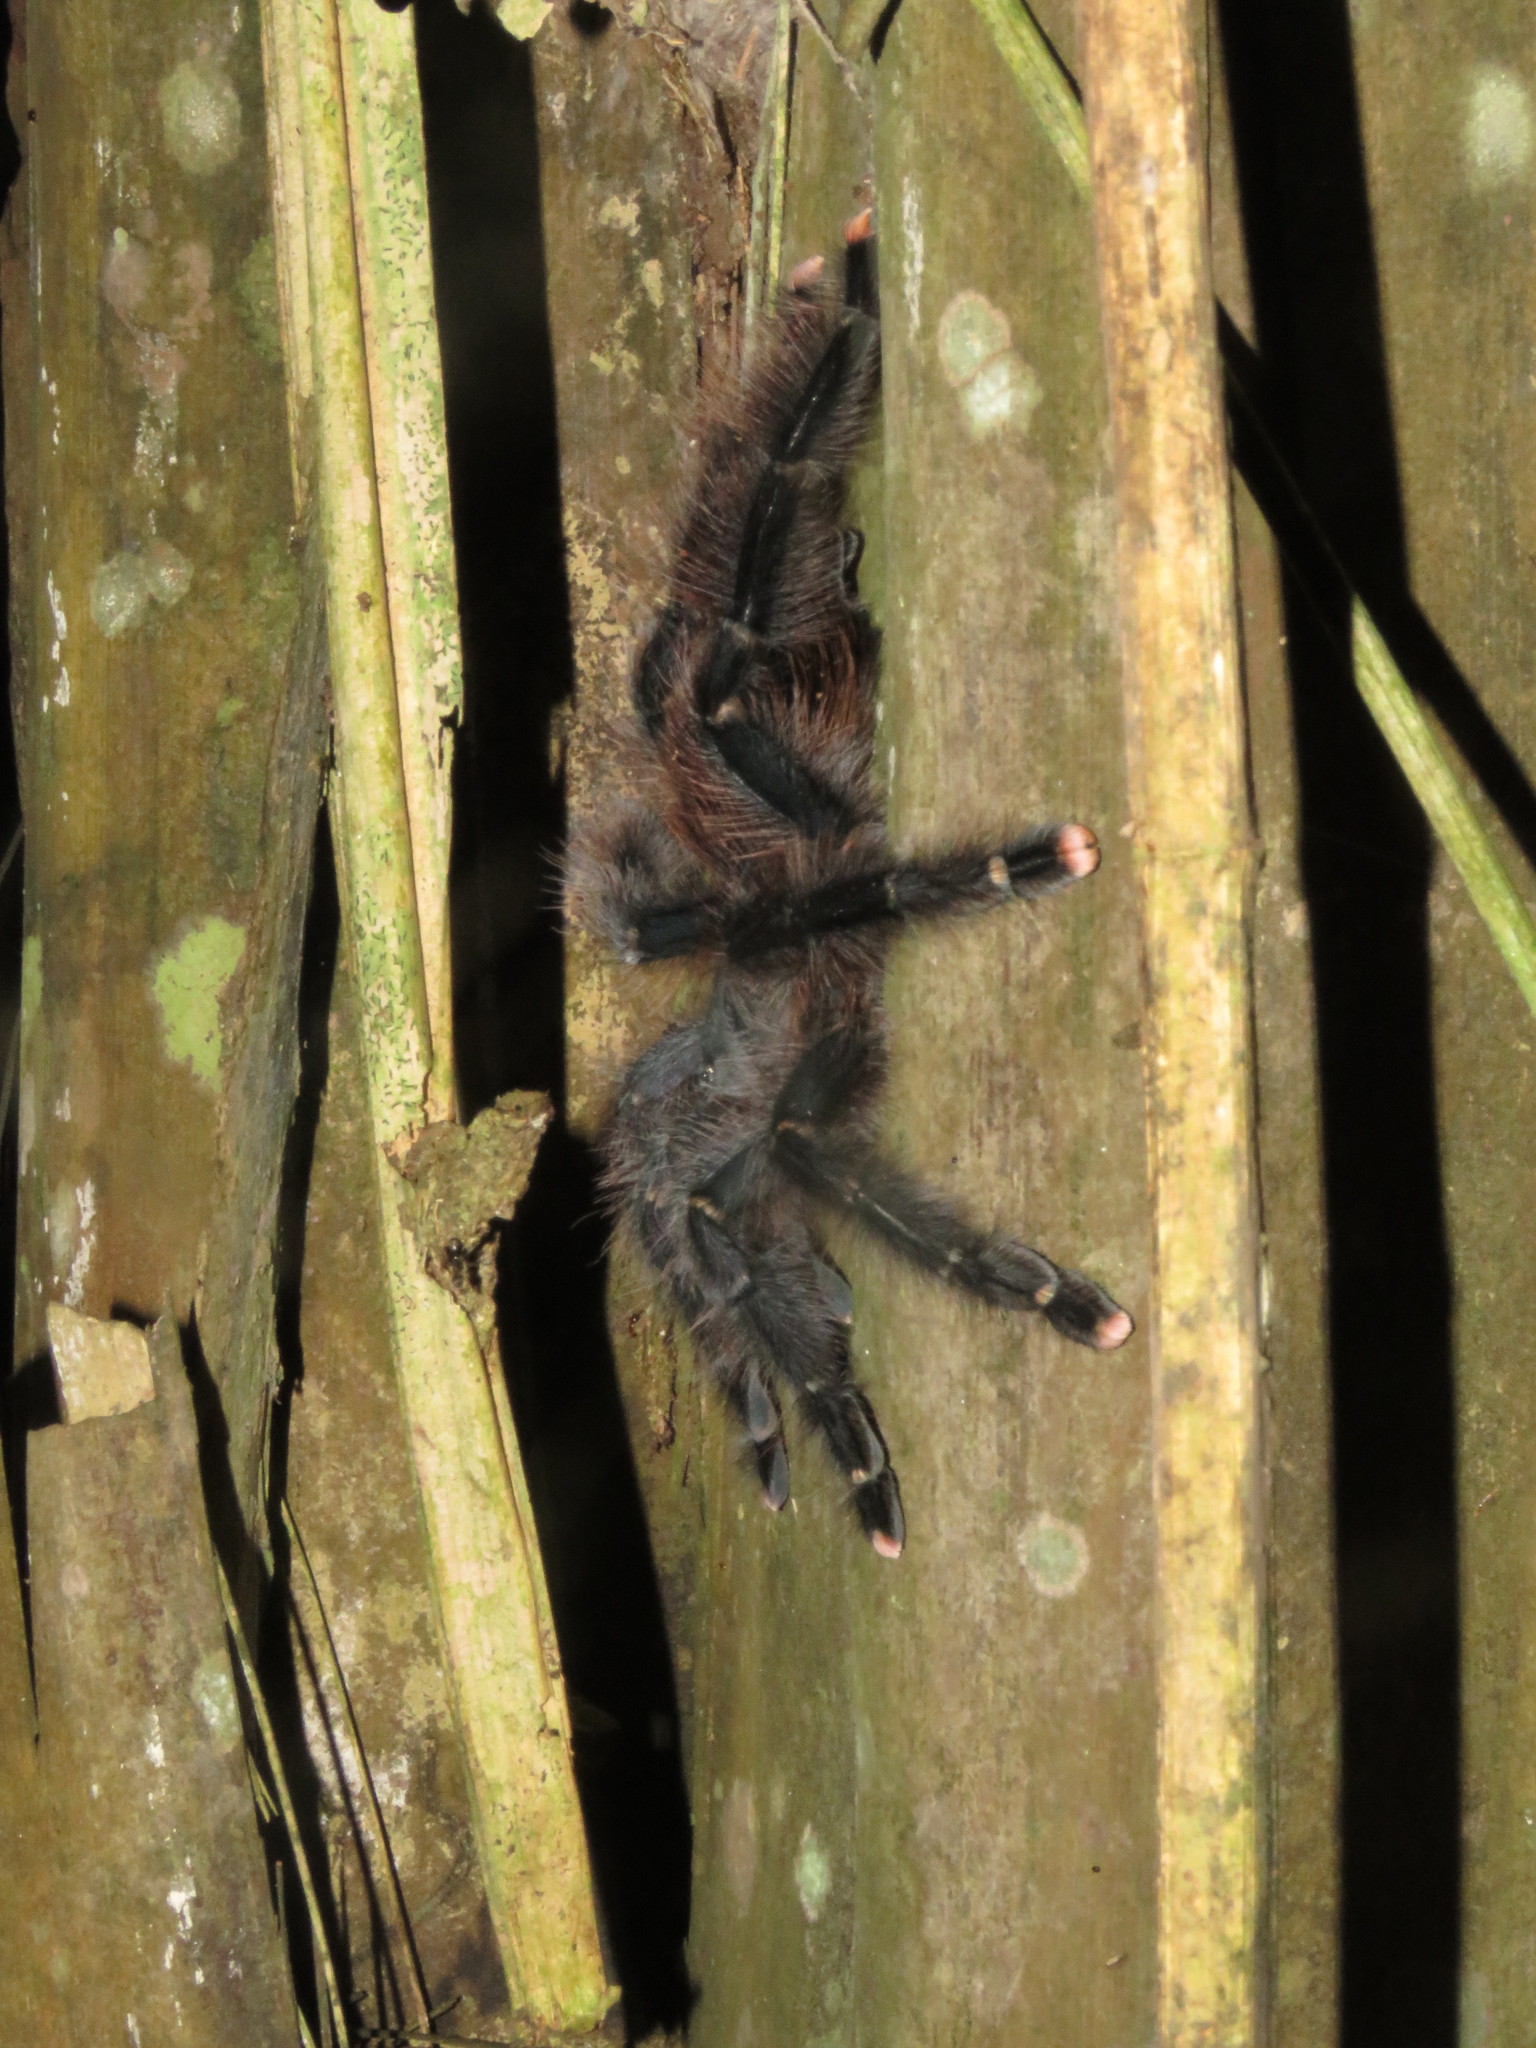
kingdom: Animalia
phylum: Arthropoda
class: Arachnida
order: Araneae
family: Theraphosidae
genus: Avicularia
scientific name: Avicularia avicularia
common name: Tarantula spiders
